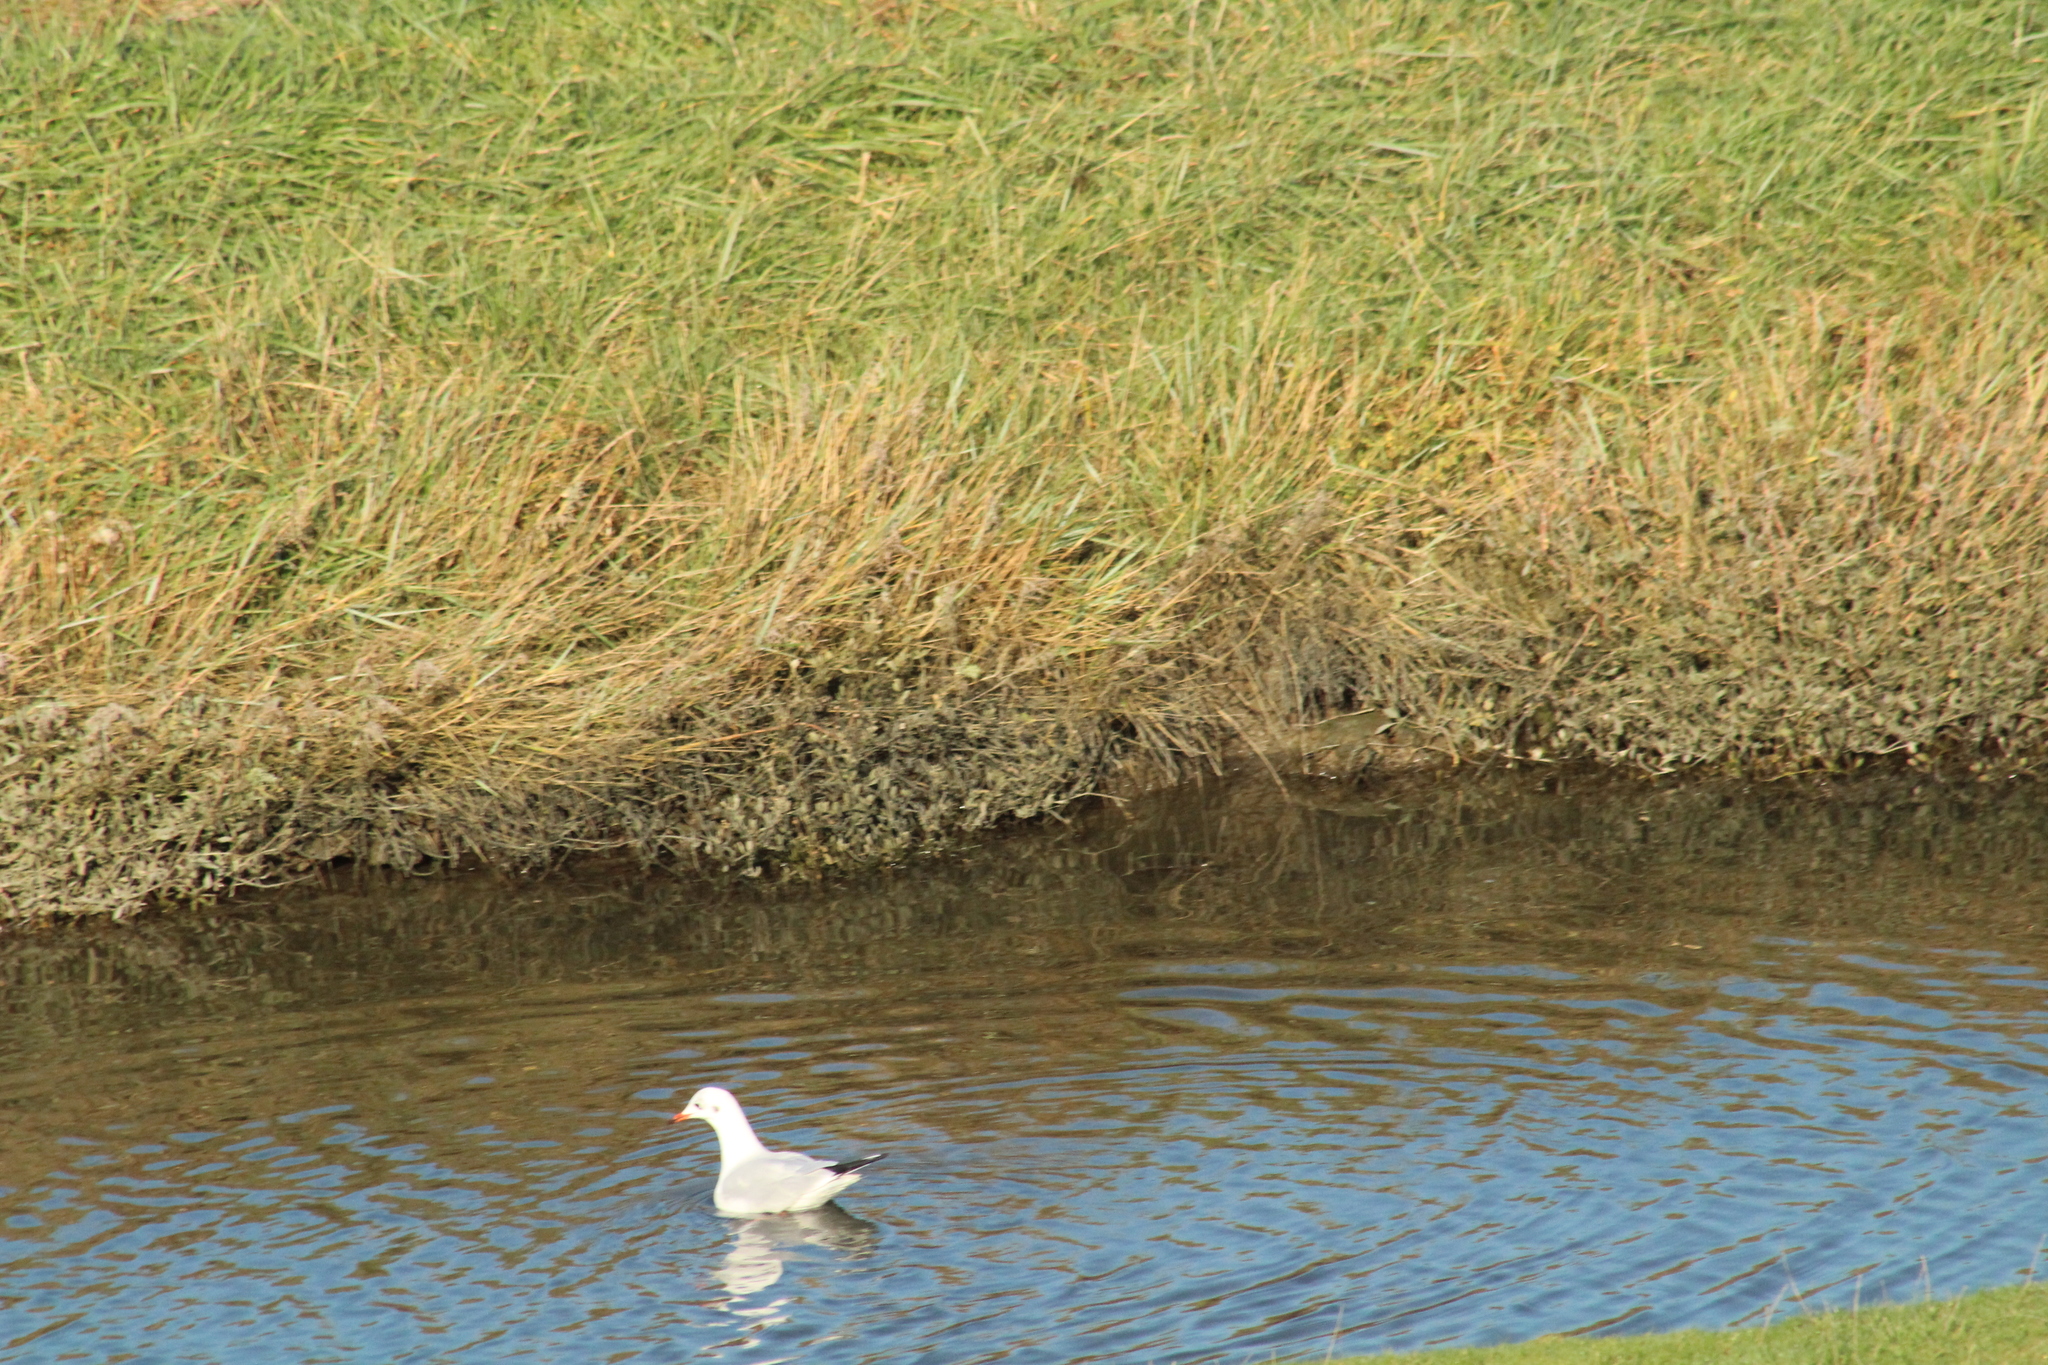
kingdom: Animalia
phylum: Chordata
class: Aves
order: Charadriiformes
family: Laridae
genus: Chroicocephalus
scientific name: Chroicocephalus ridibundus
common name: Black-headed gull
